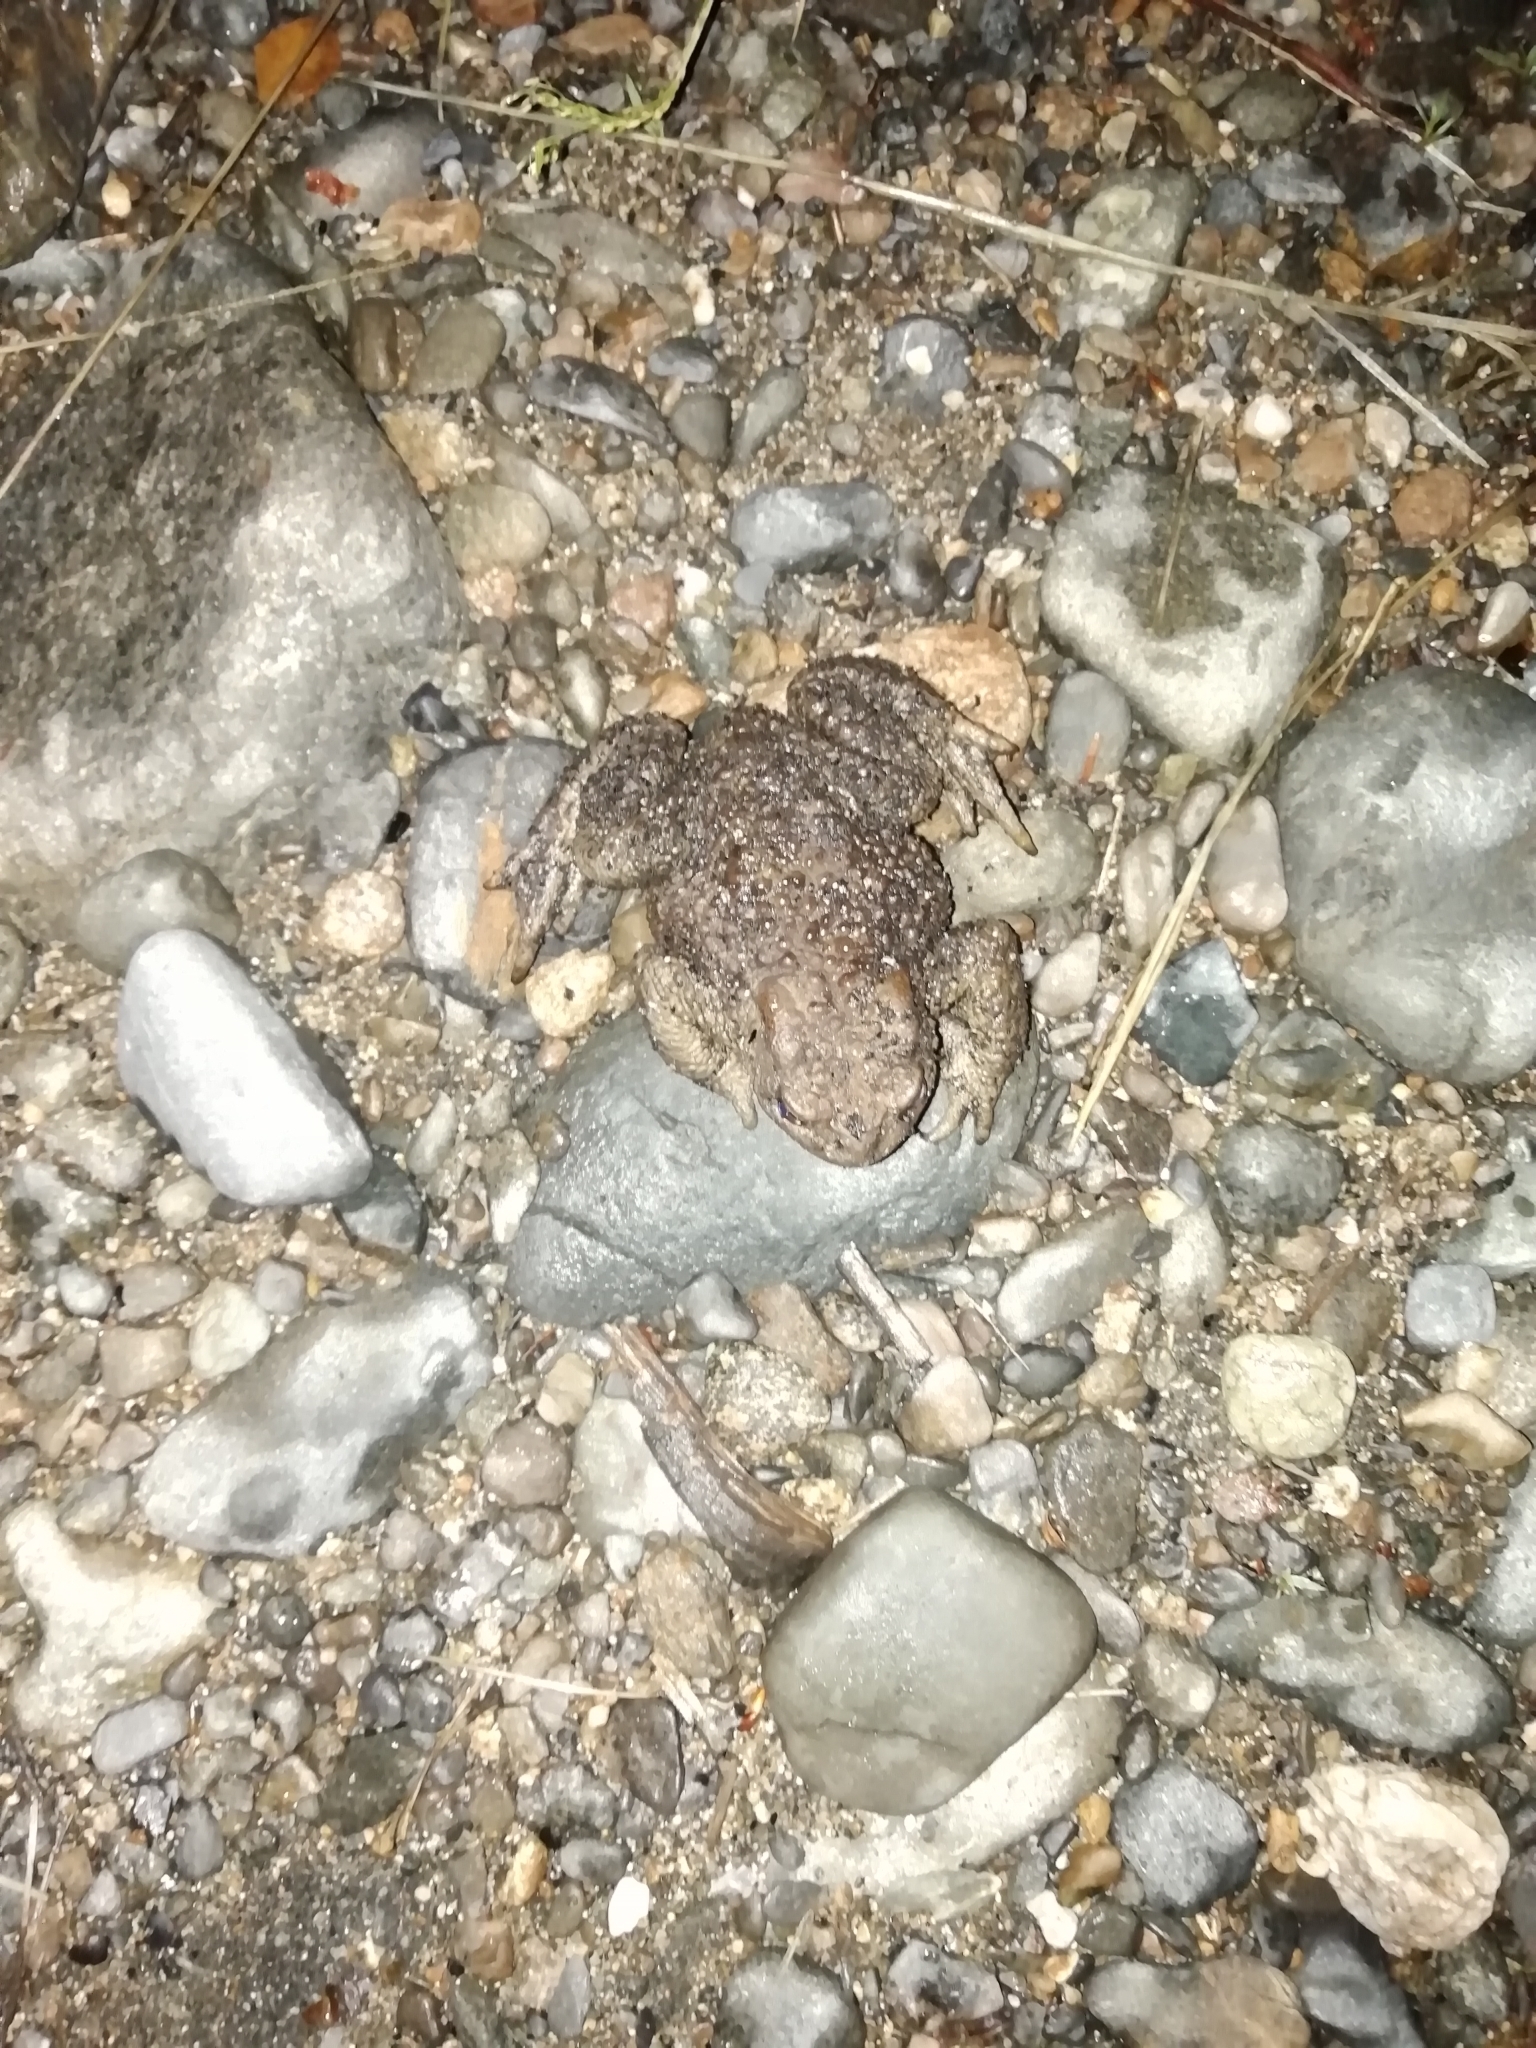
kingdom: Animalia
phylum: Chordata
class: Amphibia
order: Anura
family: Bufonidae
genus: Bufo
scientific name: Bufo bufo
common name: Common toad
